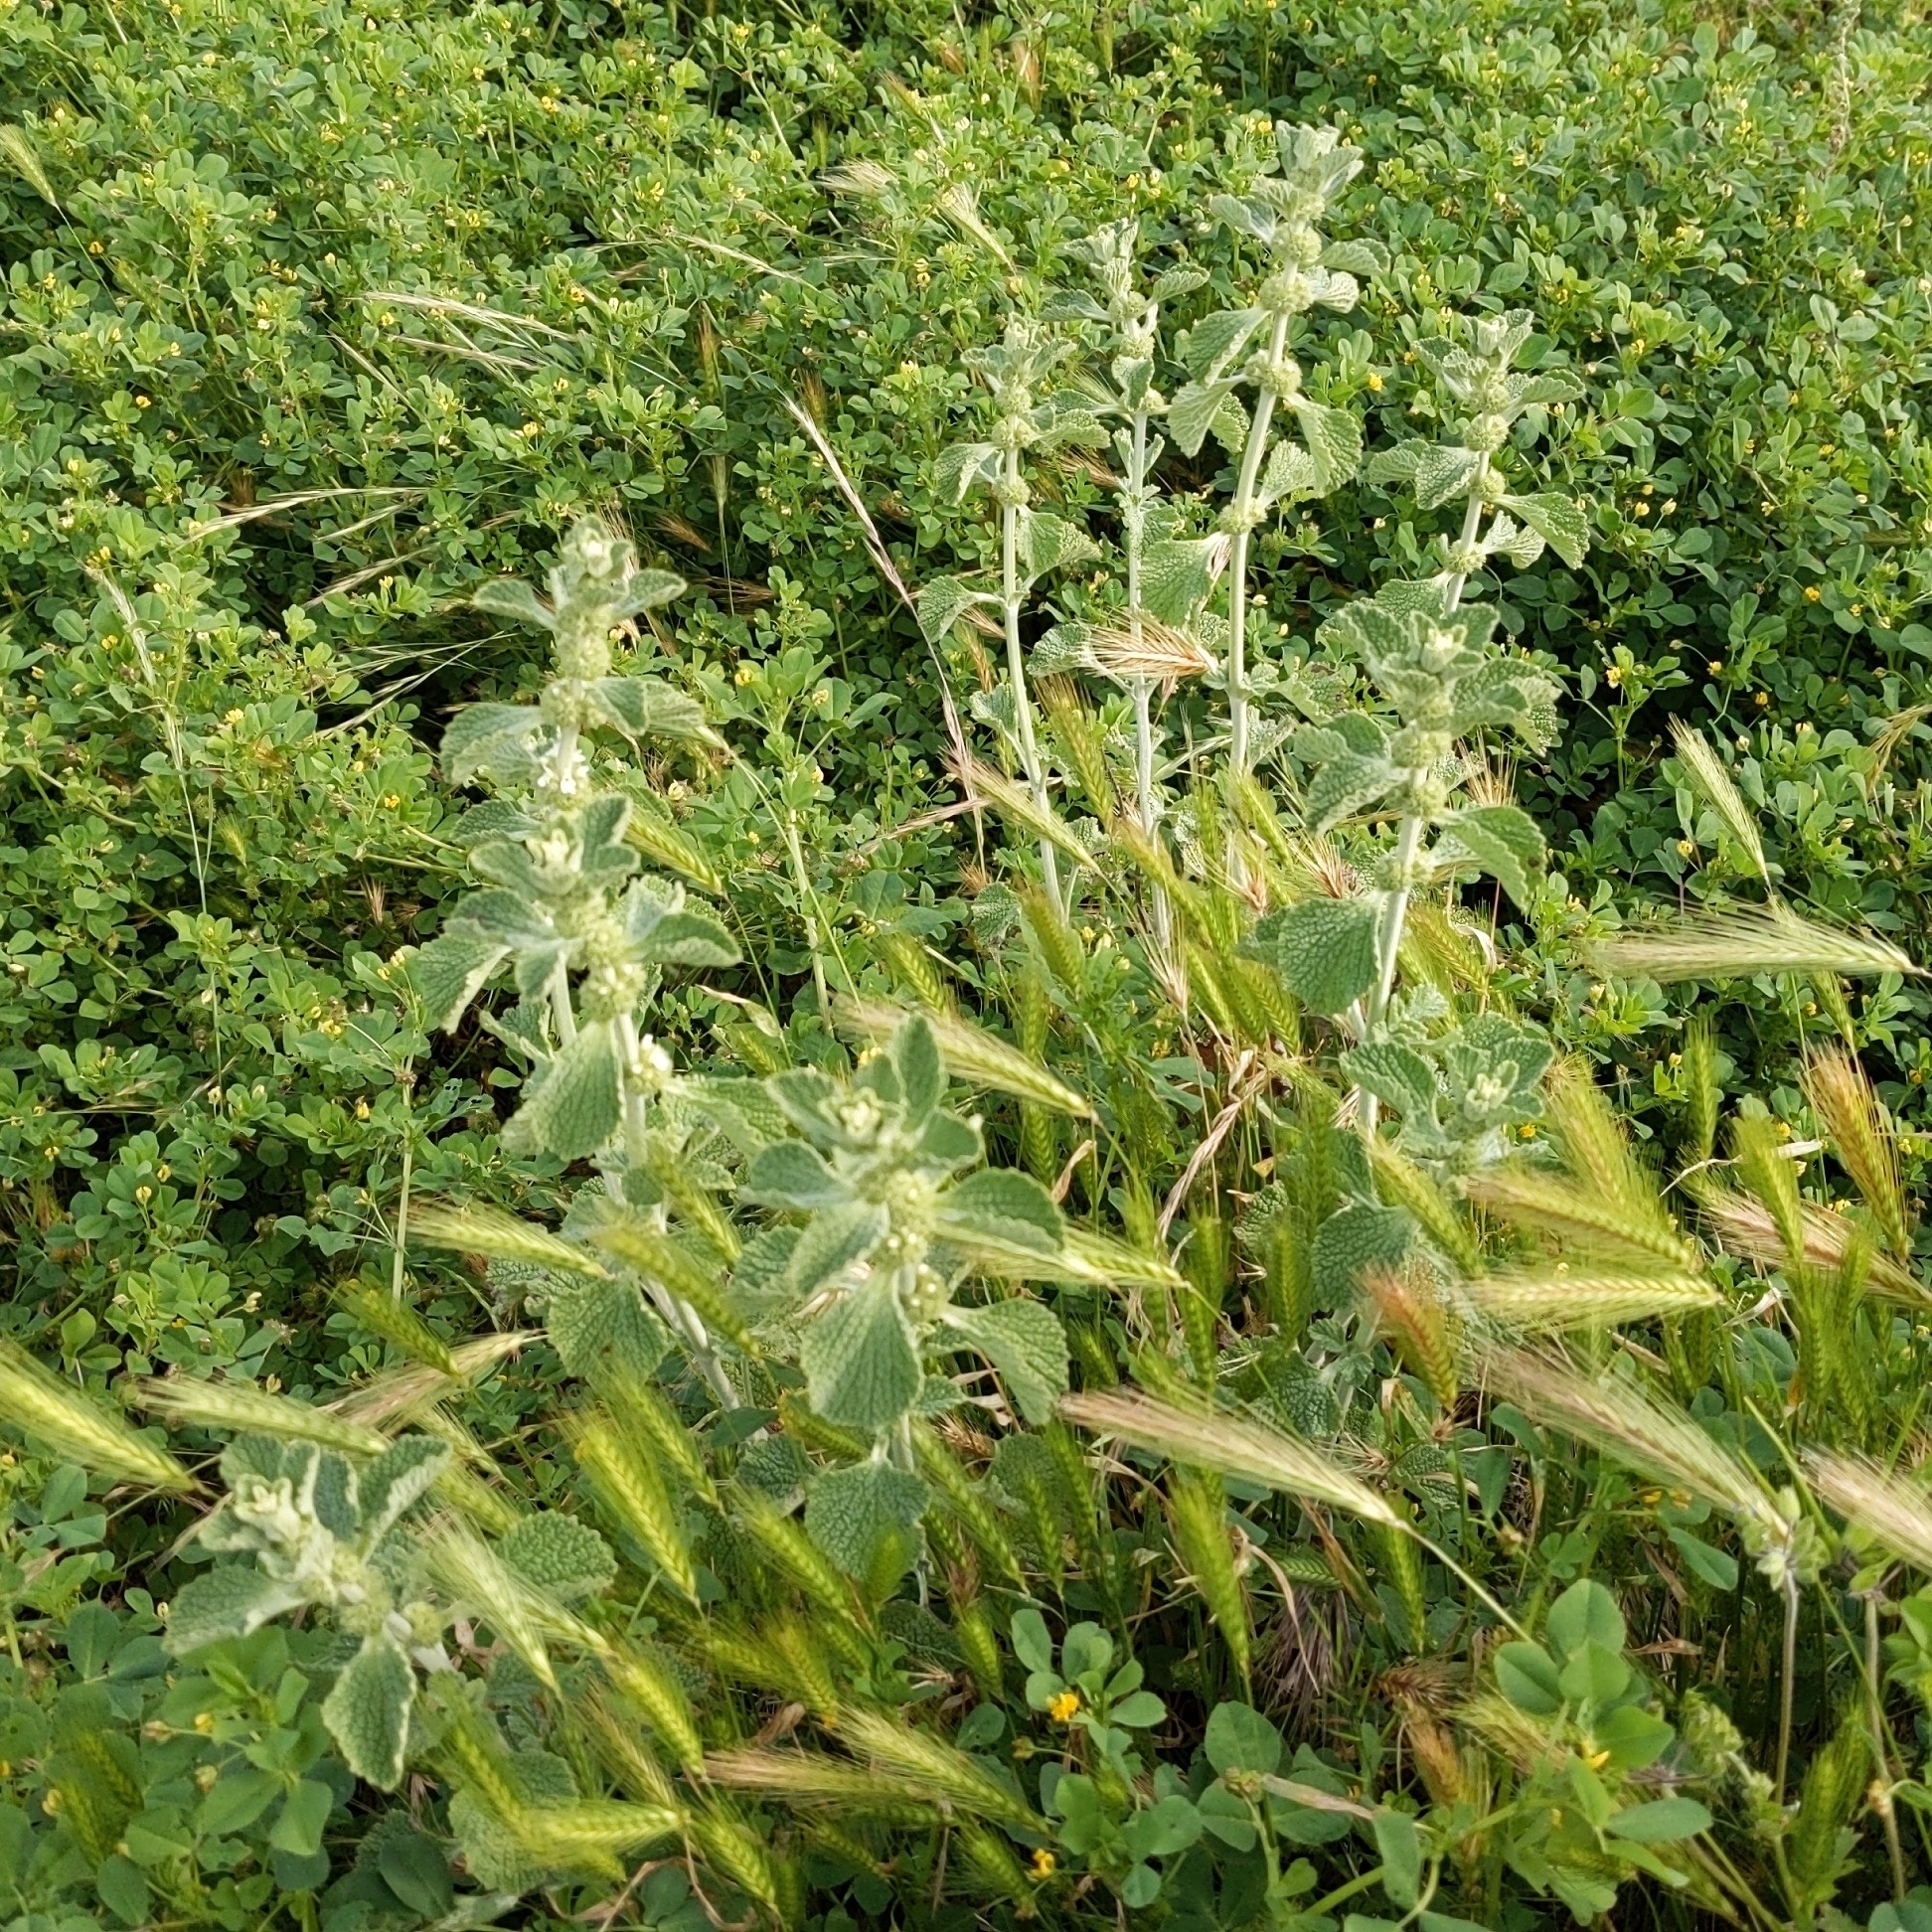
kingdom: Plantae
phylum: Tracheophyta
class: Magnoliopsida
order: Lamiales
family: Lamiaceae
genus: Marrubium
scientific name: Marrubium vulgare
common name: Horehound
